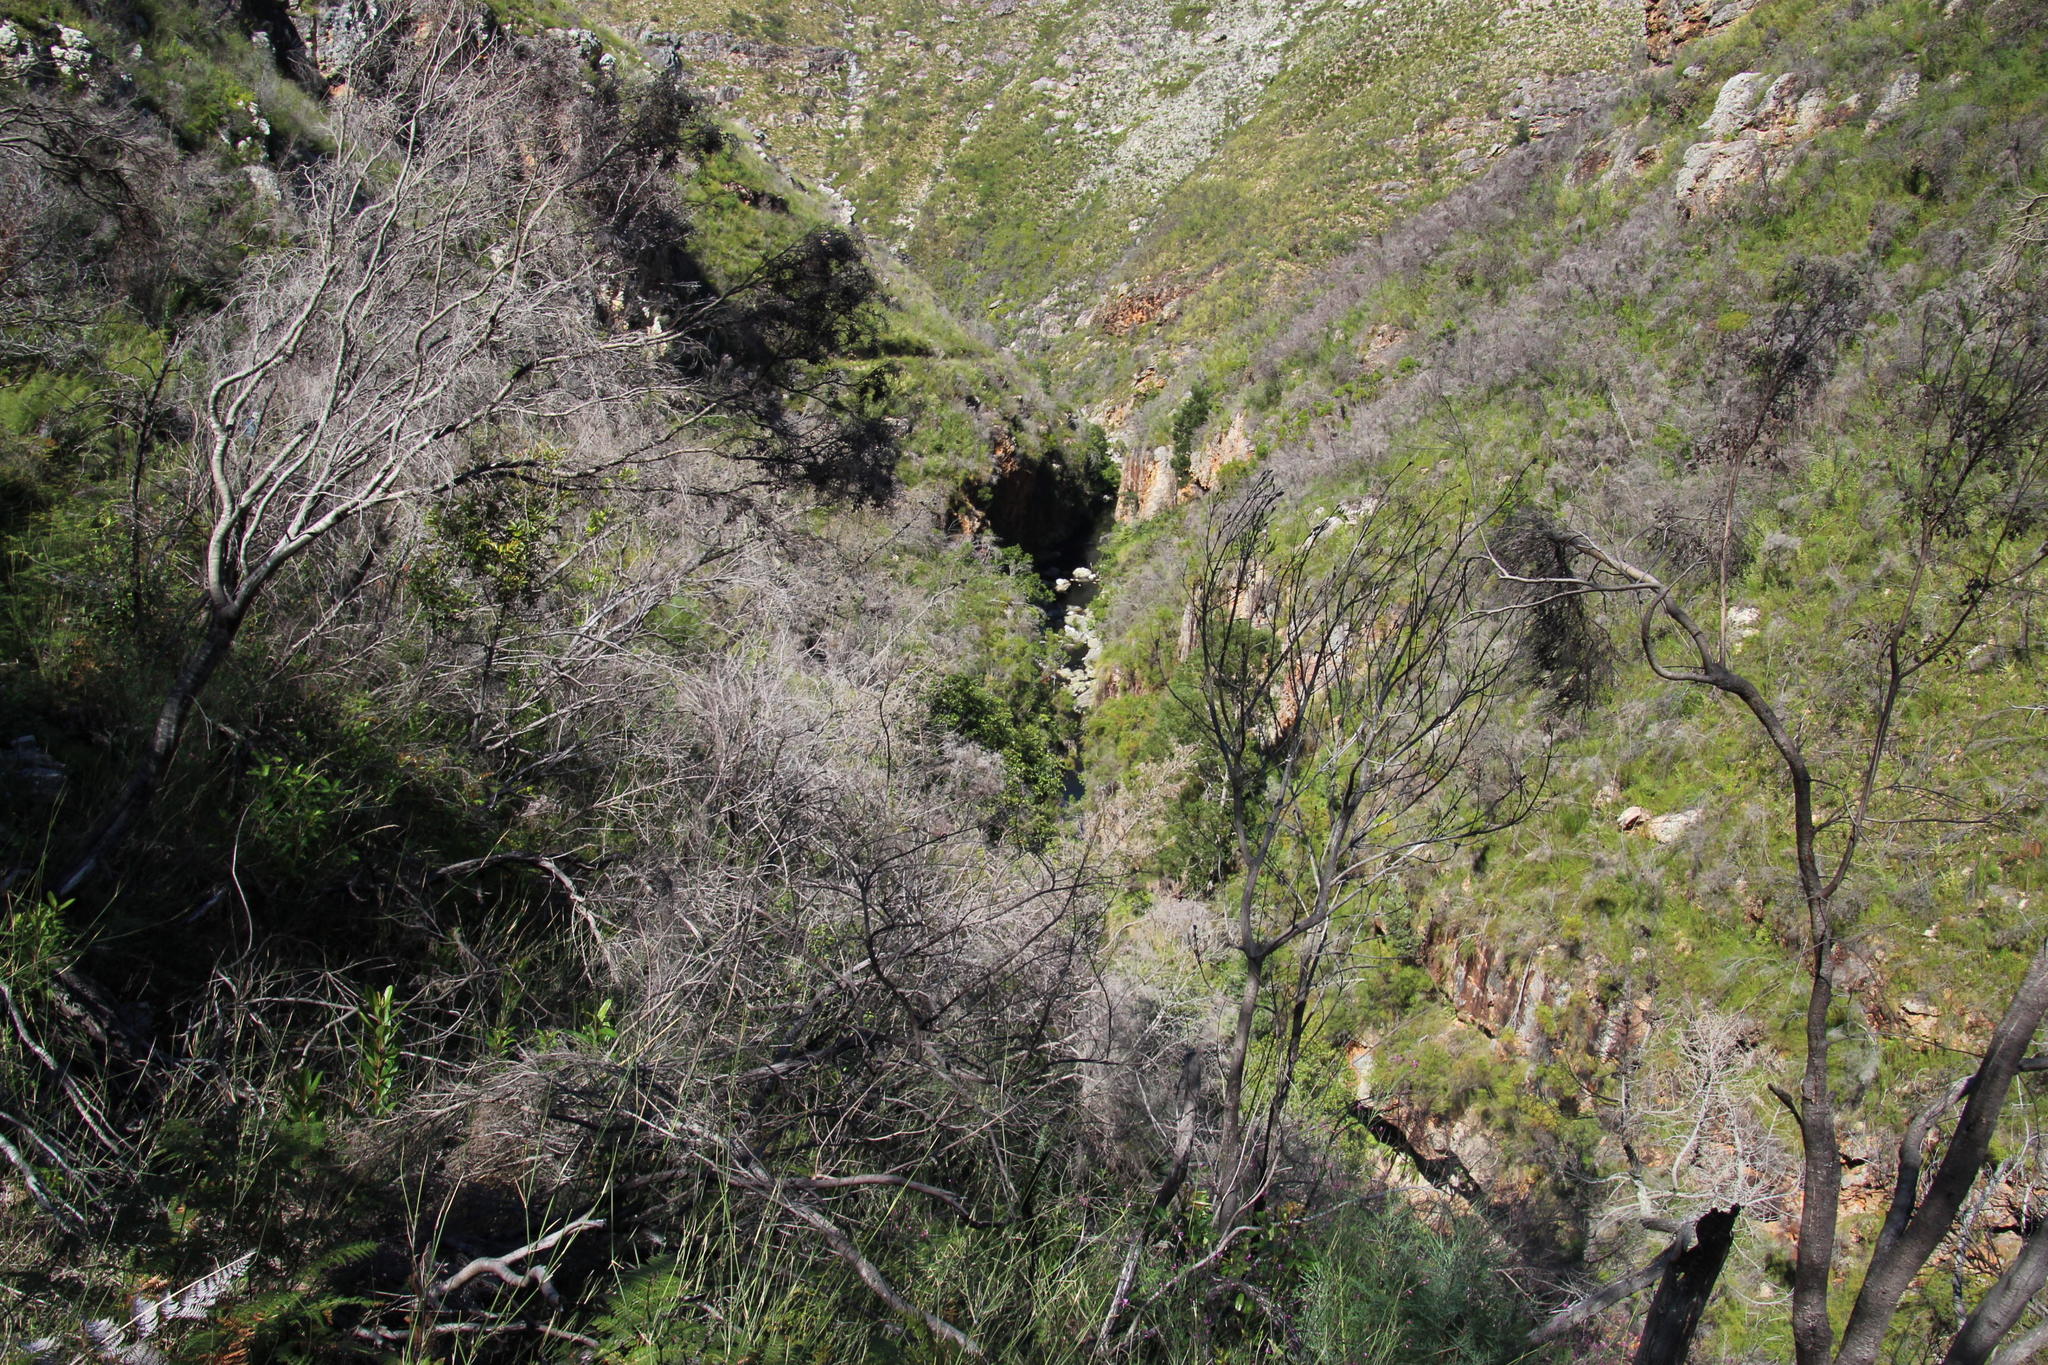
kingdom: Plantae
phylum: Tracheophyta
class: Magnoliopsida
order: Fabales
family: Fabaceae
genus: Acacia
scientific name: Acacia mearnsii
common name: Black wattle
